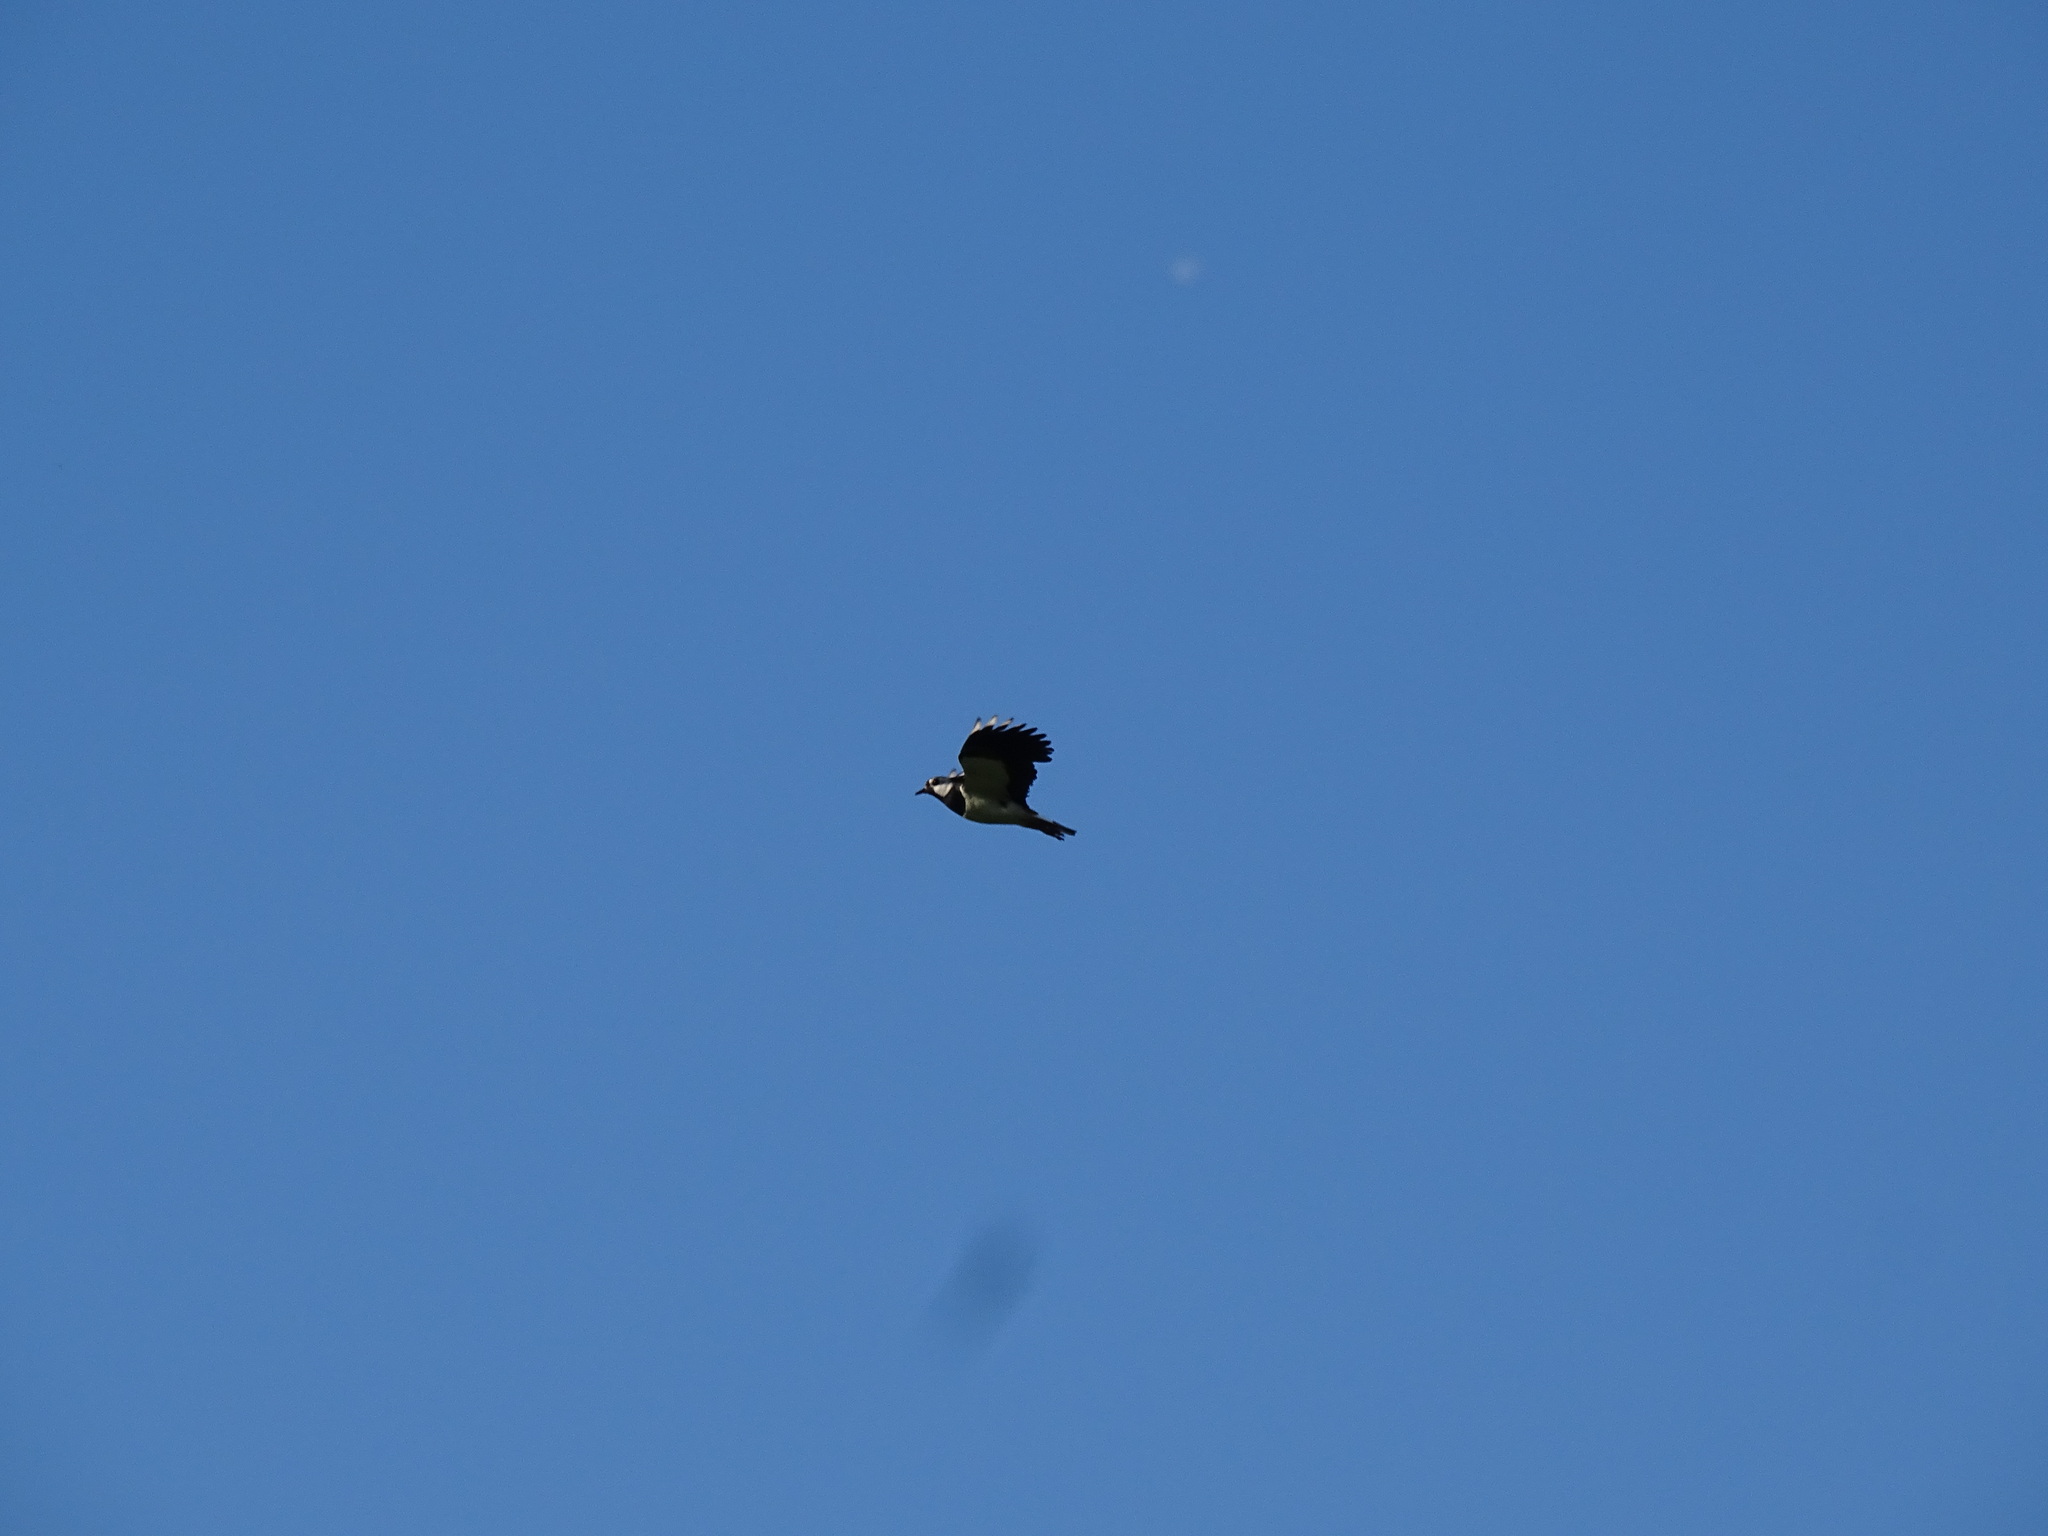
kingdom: Animalia
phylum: Chordata
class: Aves
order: Charadriiformes
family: Charadriidae
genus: Vanellus
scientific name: Vanellus vanellus
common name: Northern lapwing
